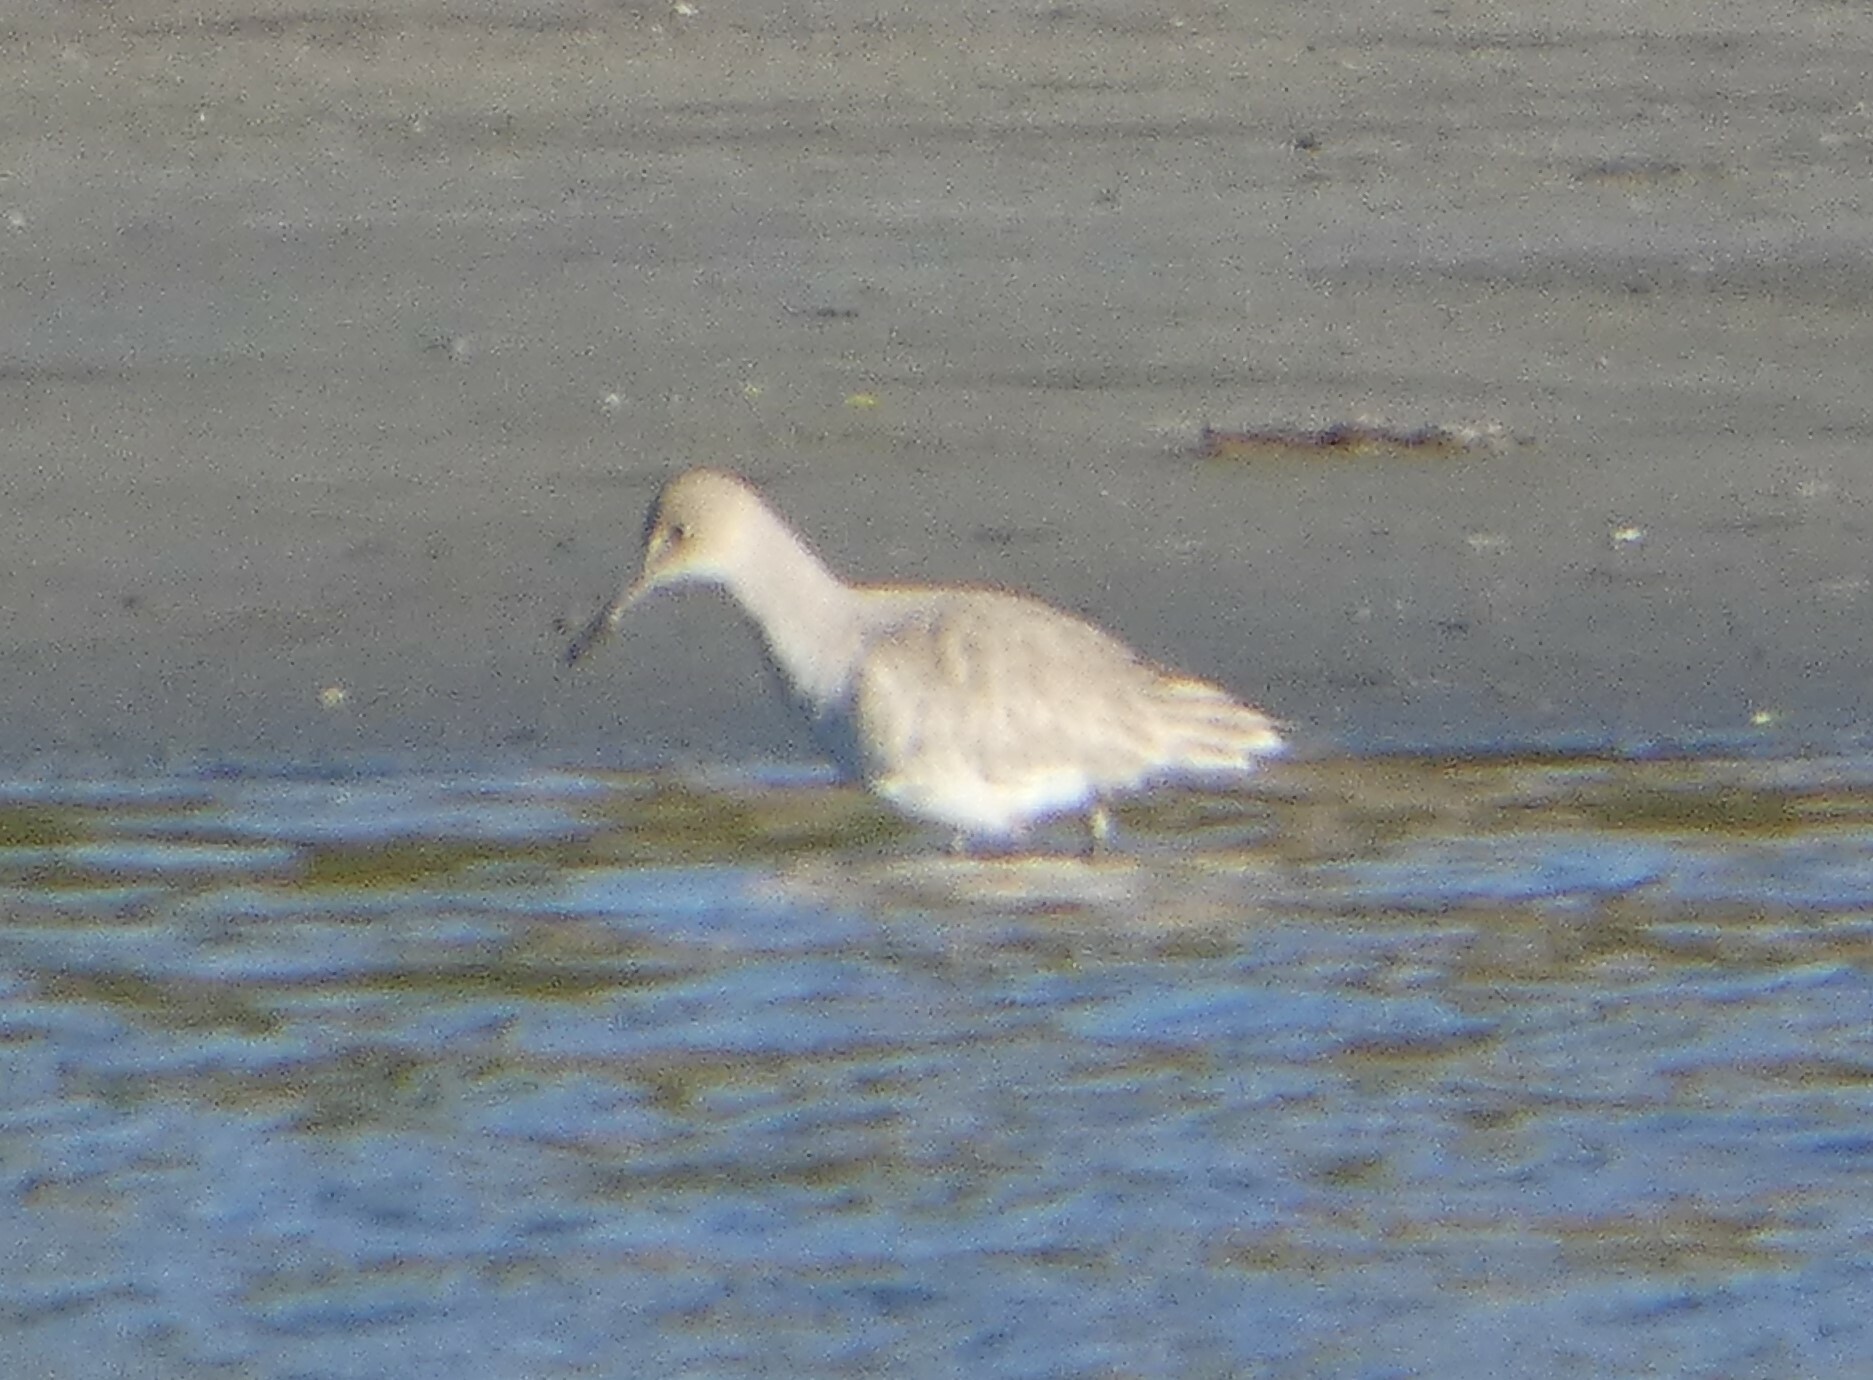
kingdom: Animalia
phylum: Chordata
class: Aves
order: Charadriiformes
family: Scolopacidae
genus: Tringa
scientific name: Tringa semipalmata
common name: Willet
